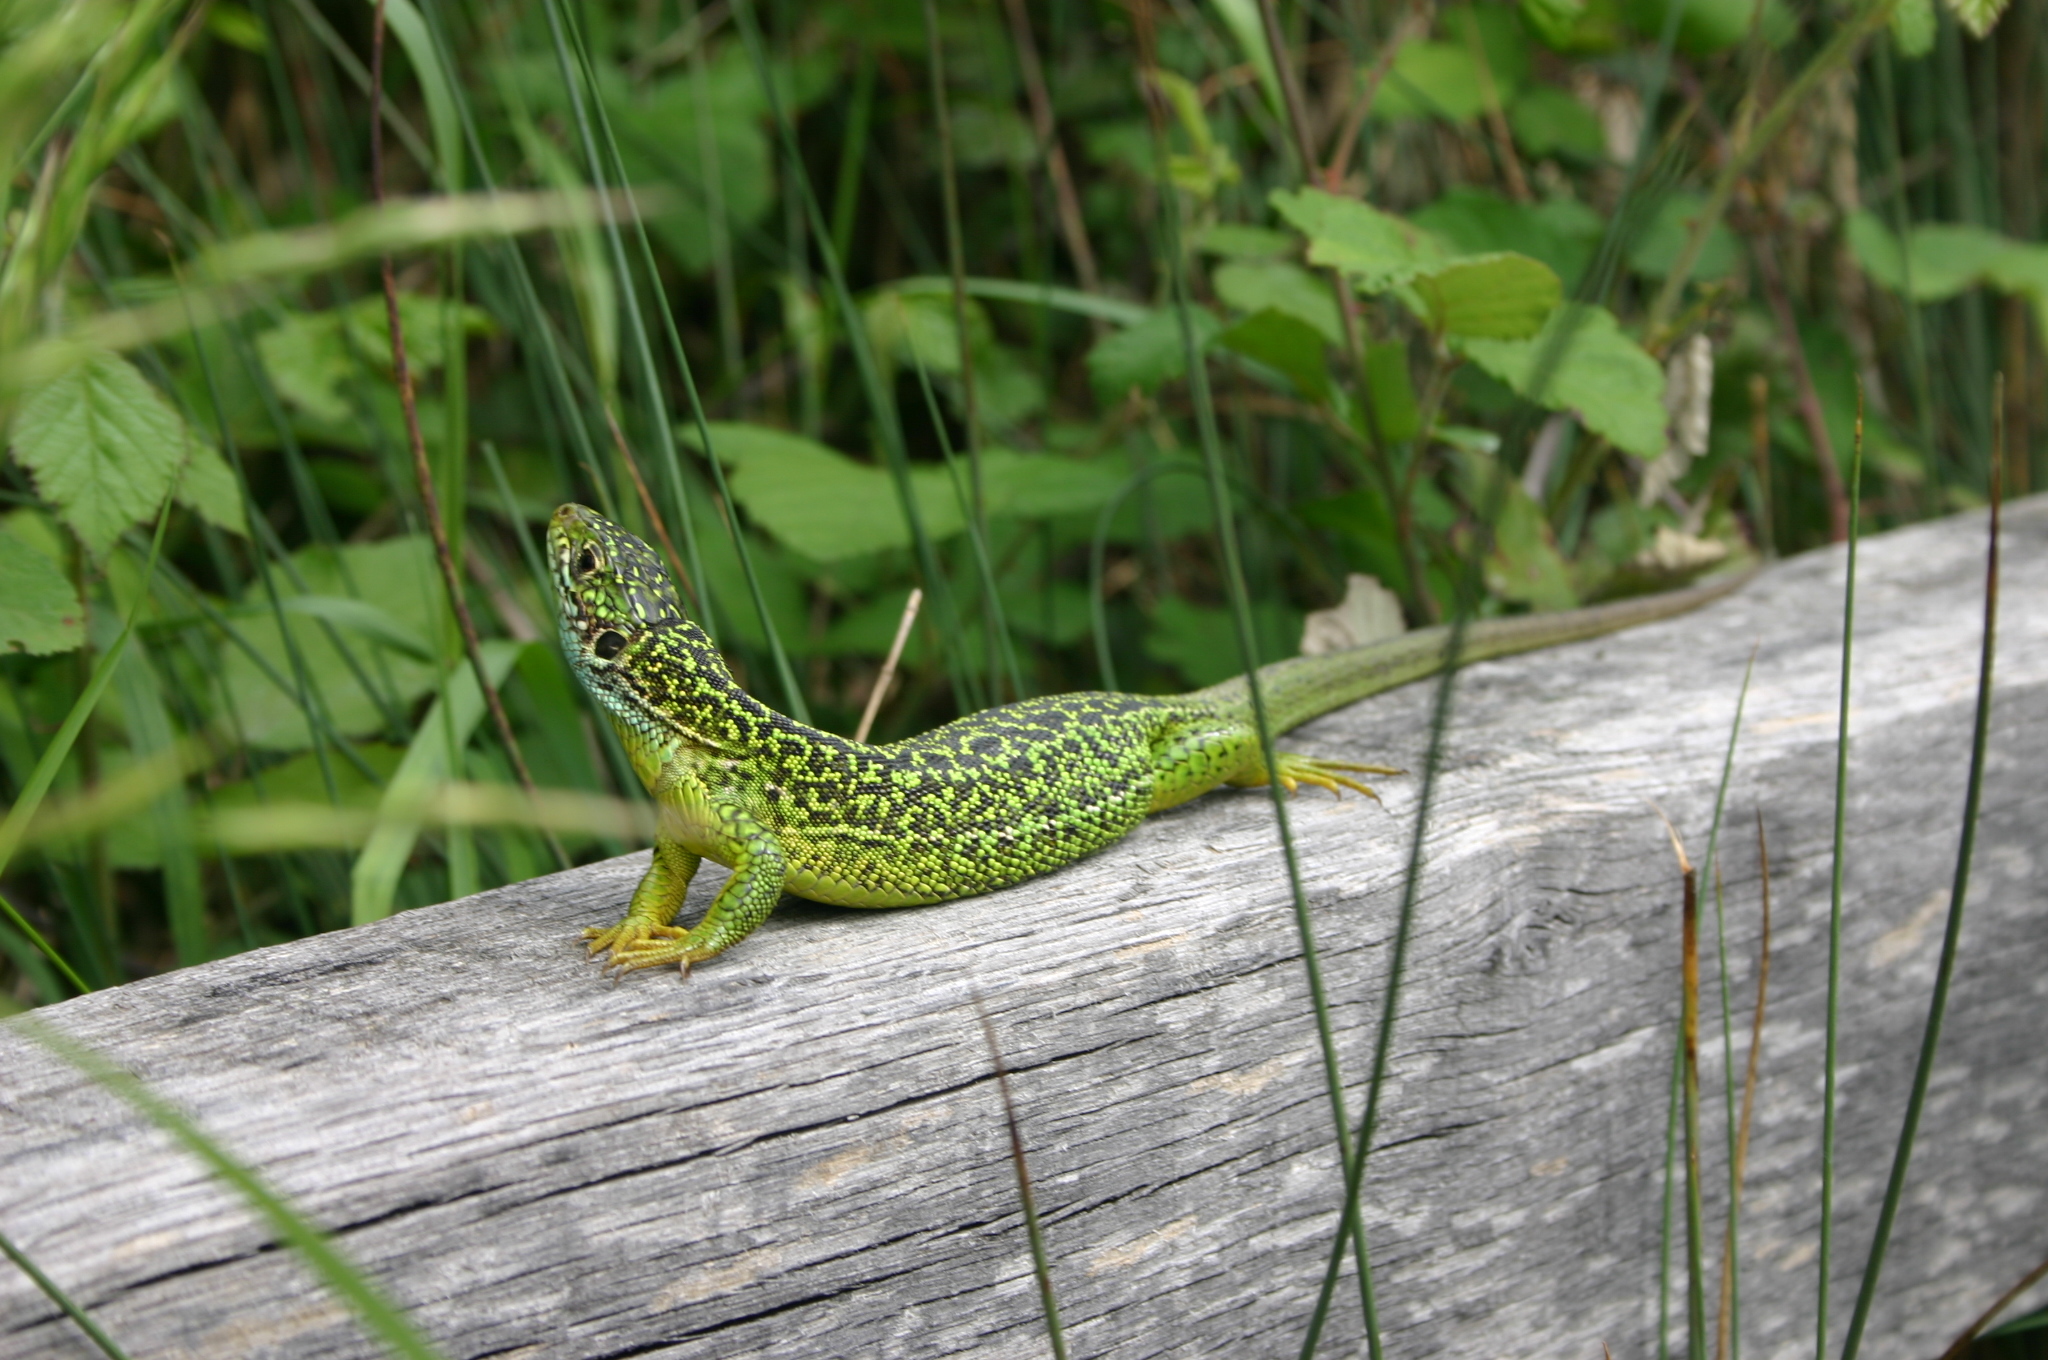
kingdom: Animalia
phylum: Chordata
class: Squamata
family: Lacertidae
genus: Lacerta
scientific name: Lacerta bilineata
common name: Western green lizard
